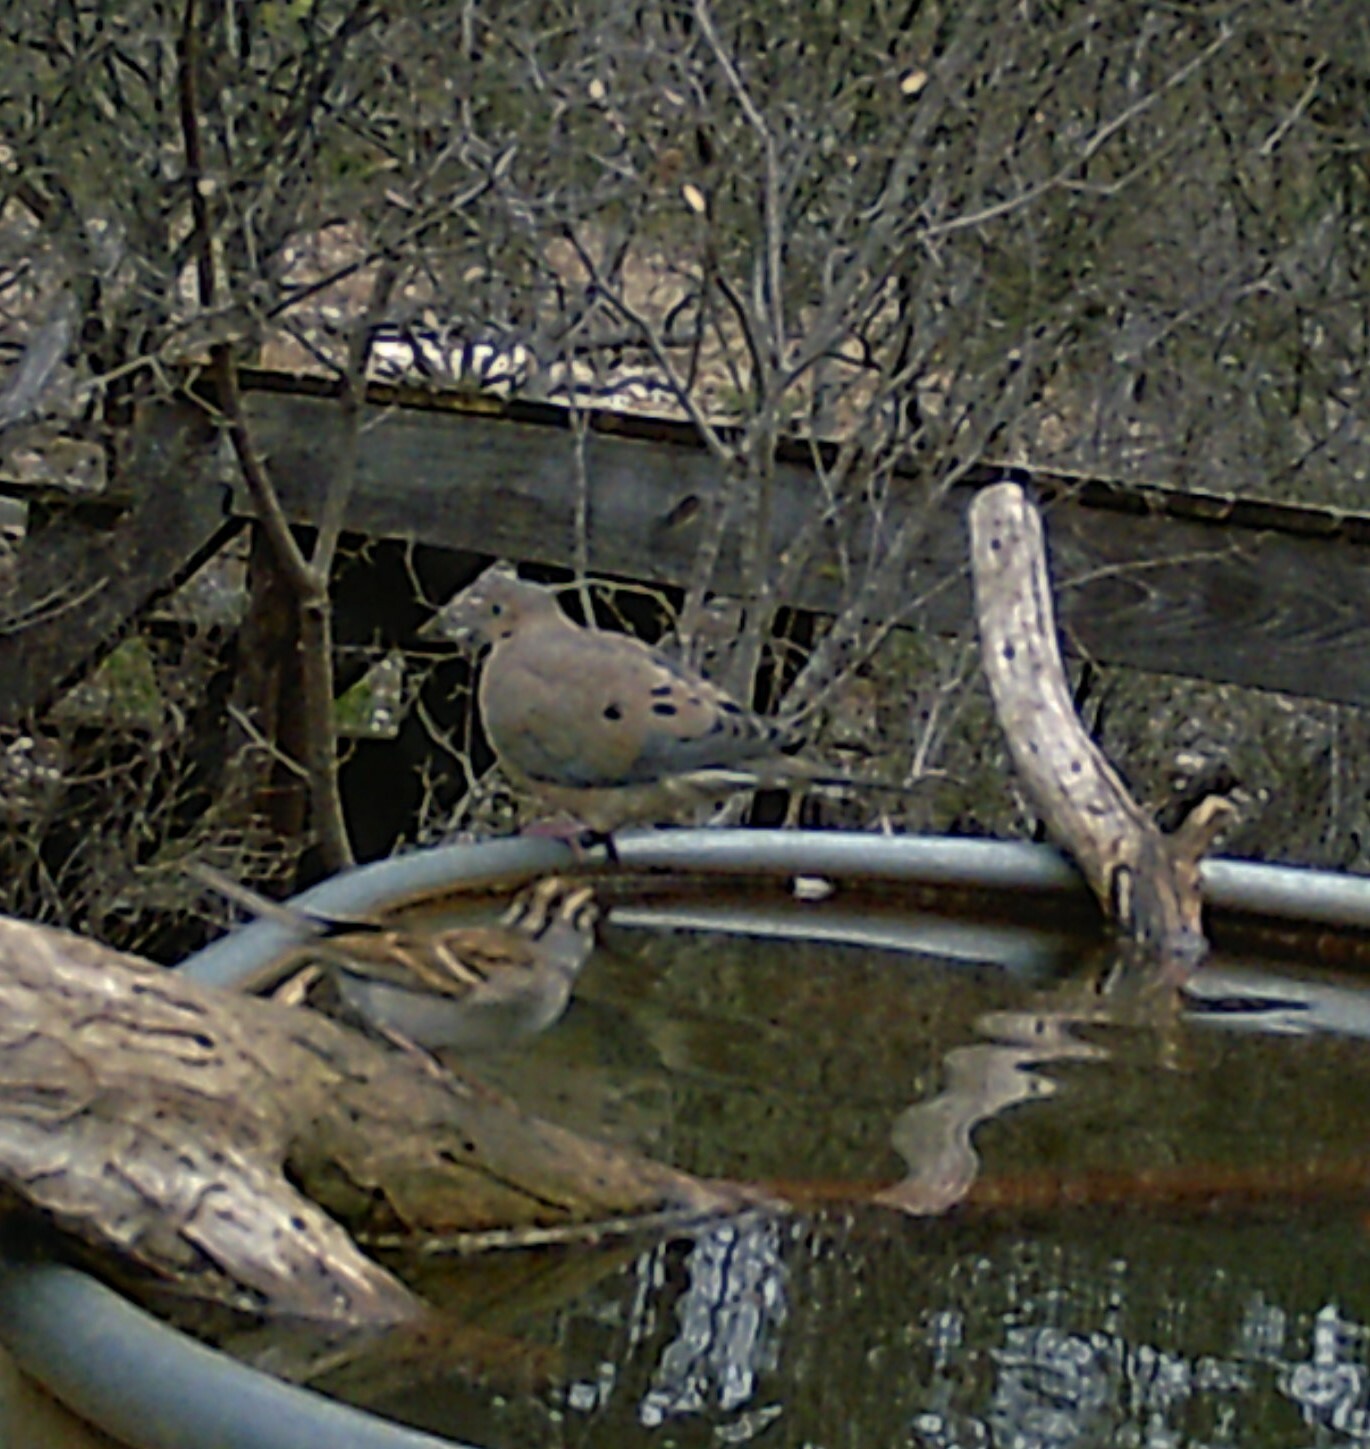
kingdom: Animalia
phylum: Chordata
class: Aves
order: Columbiformes
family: Columbidae
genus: Zenaida
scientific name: Zenaida macroura
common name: Mourning dove
